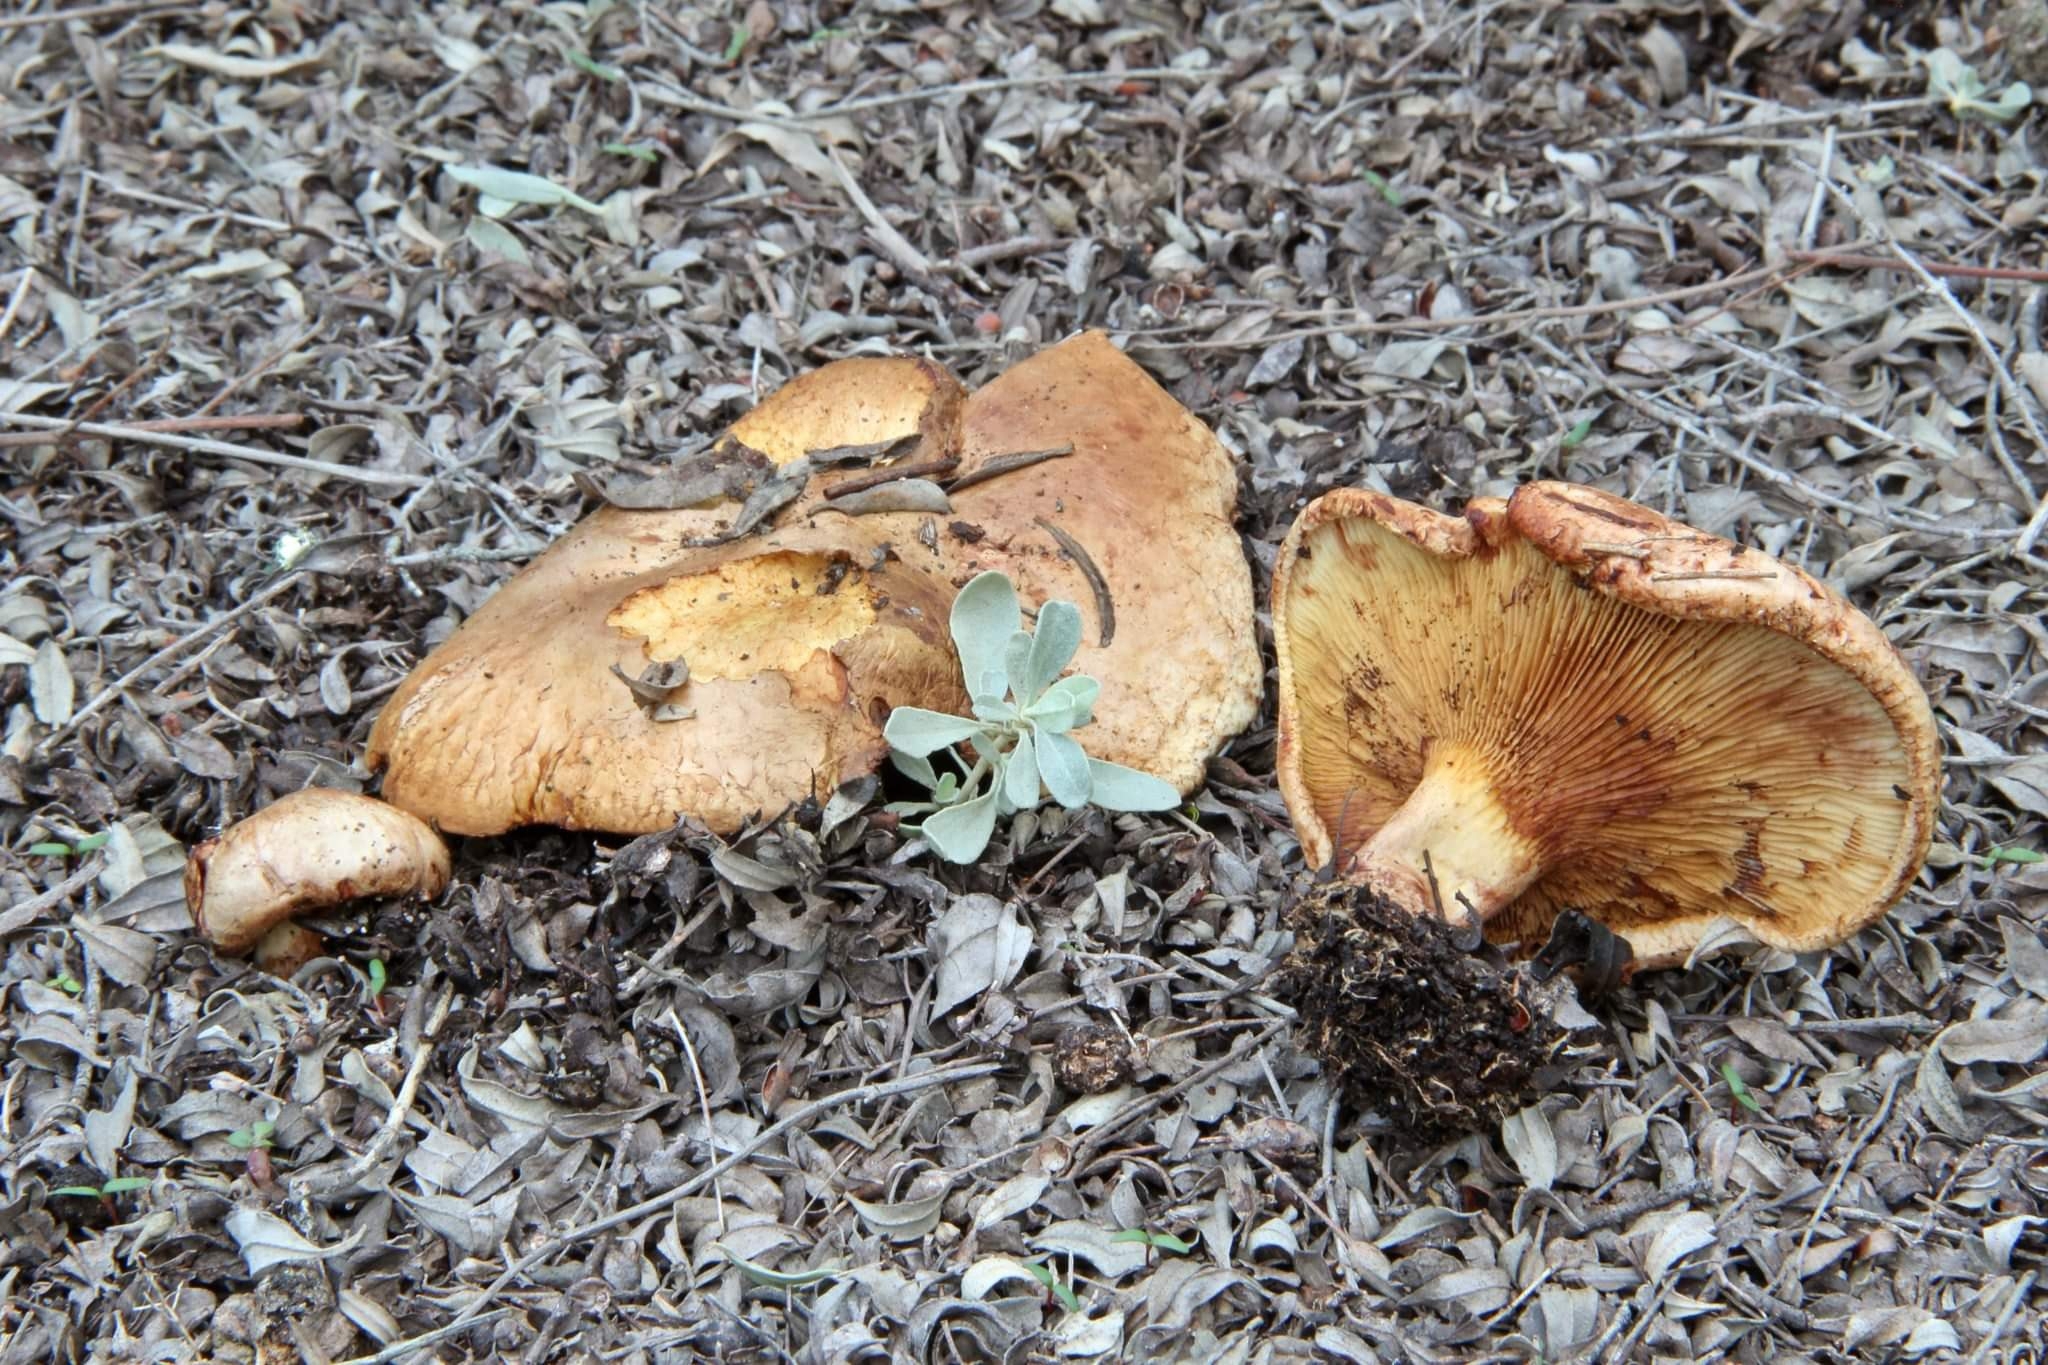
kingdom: Fungi
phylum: Basidiomycota
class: Agaricomycetes
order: Boletales
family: Paxillaceae
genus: Paxillus
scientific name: Paxillus ammoniavirescens
